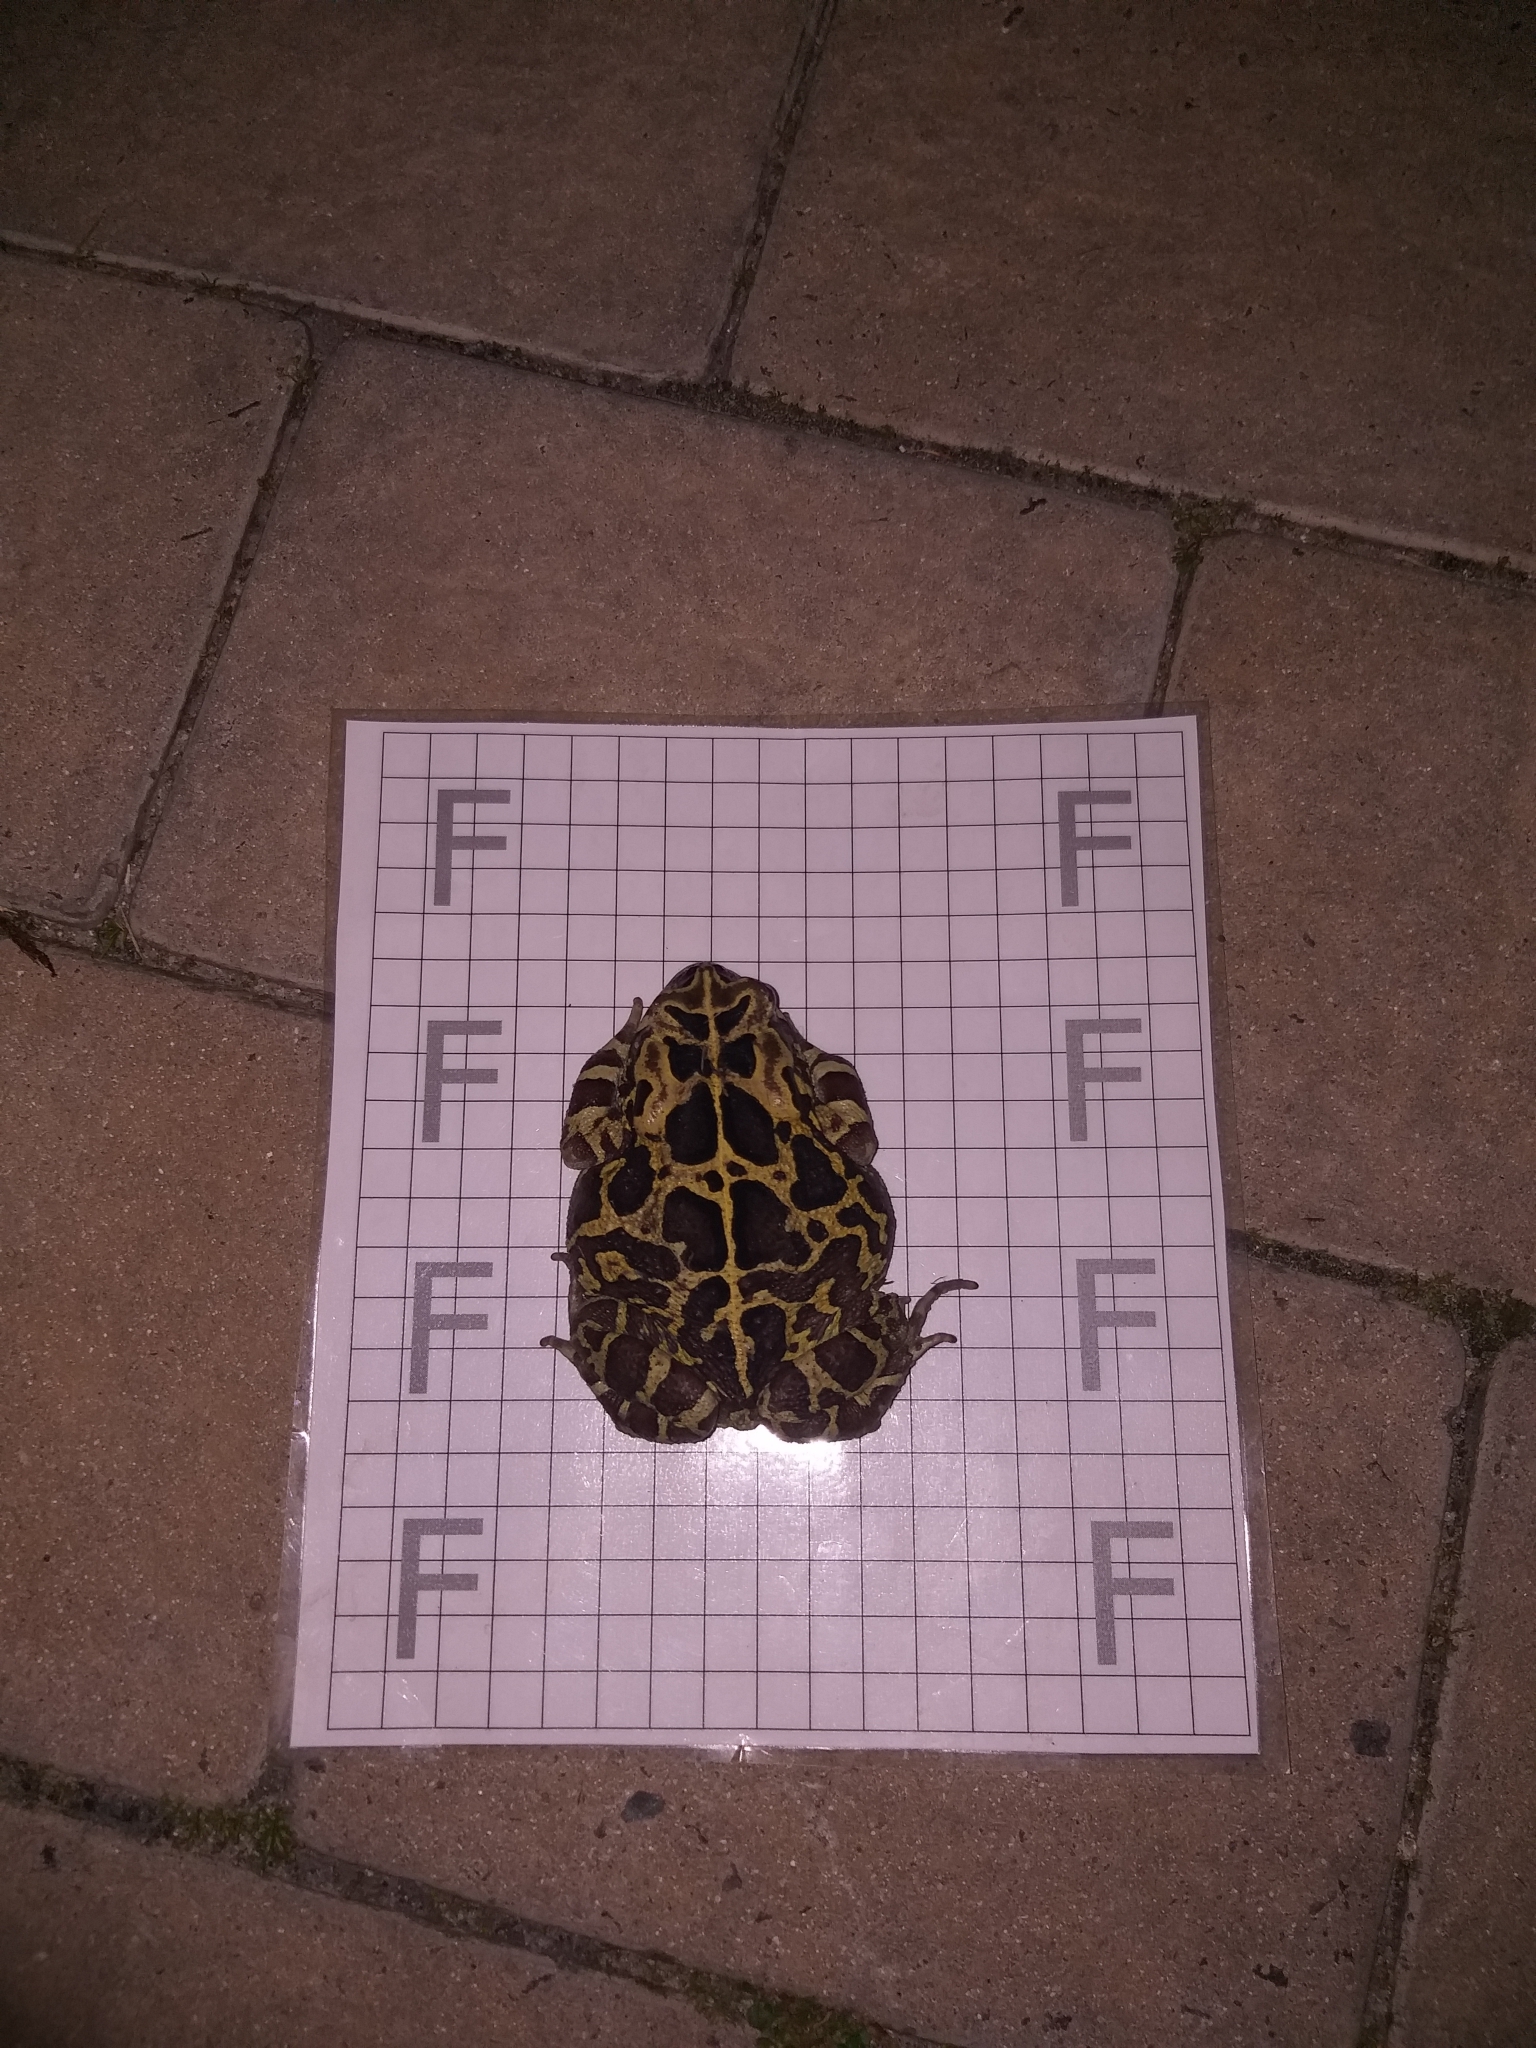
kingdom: Animalia
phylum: Chordata
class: Amphibia
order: Anura
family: Bufonidae
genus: Sclerophrys
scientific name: Sclerophrys pantherina
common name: Panther toad
